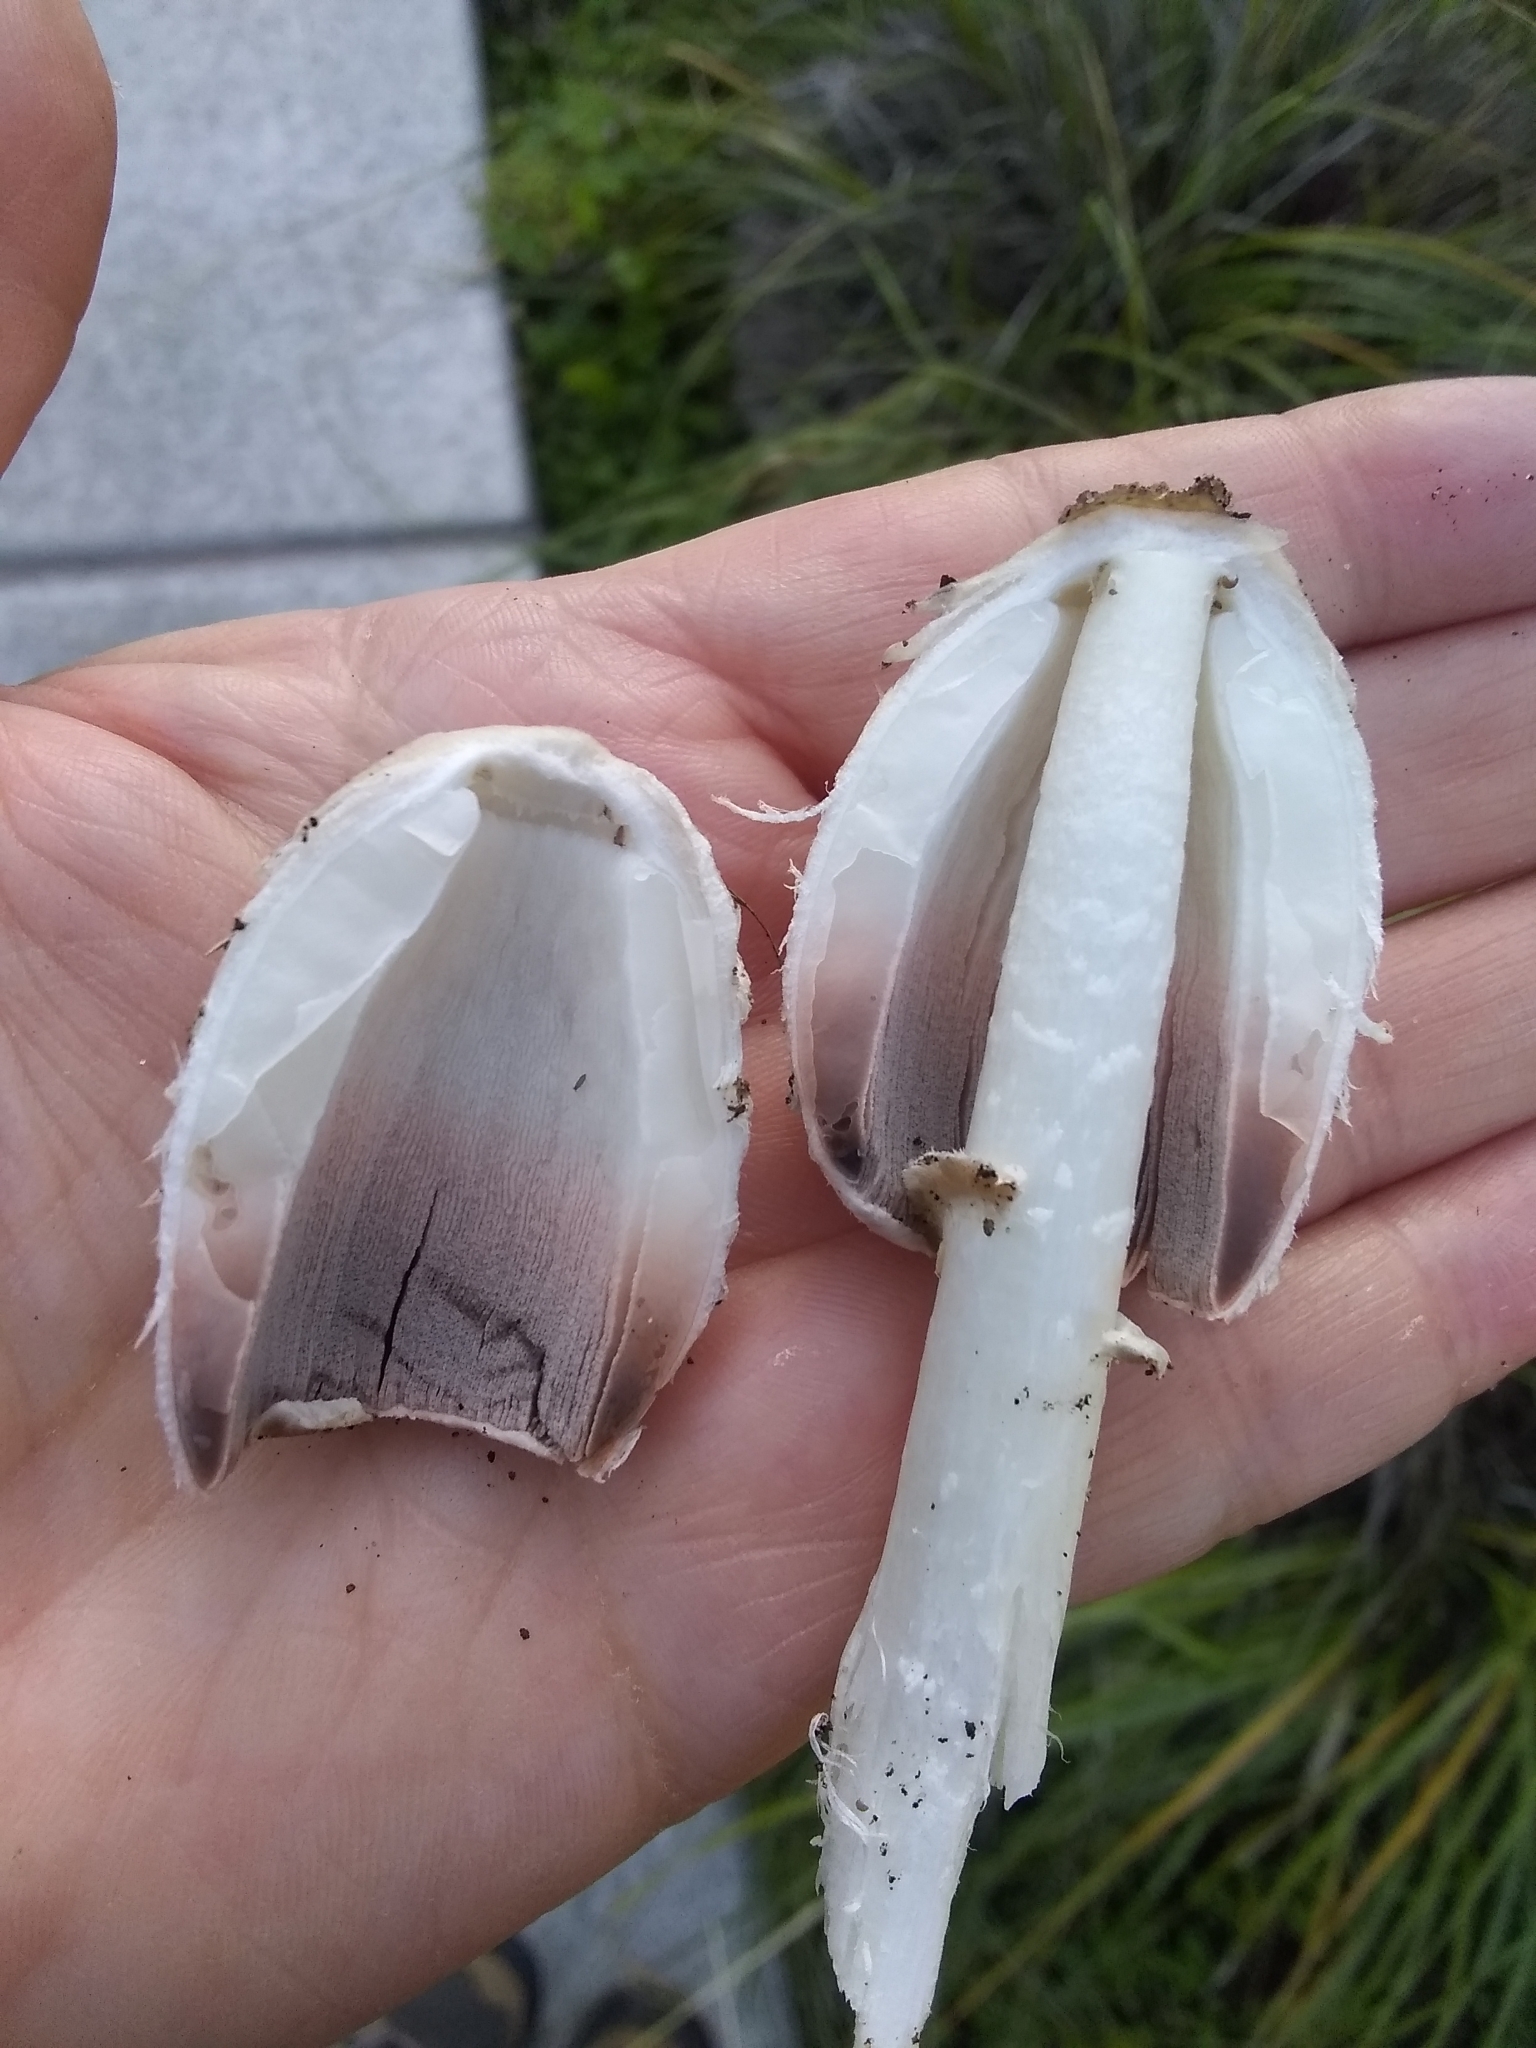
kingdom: Fungi
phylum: Basidiomycota
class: Agaricomycetes
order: Agaricales
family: Agaricaceae
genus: Coprinus
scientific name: Coprinus comatus
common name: Lawyer's wig
